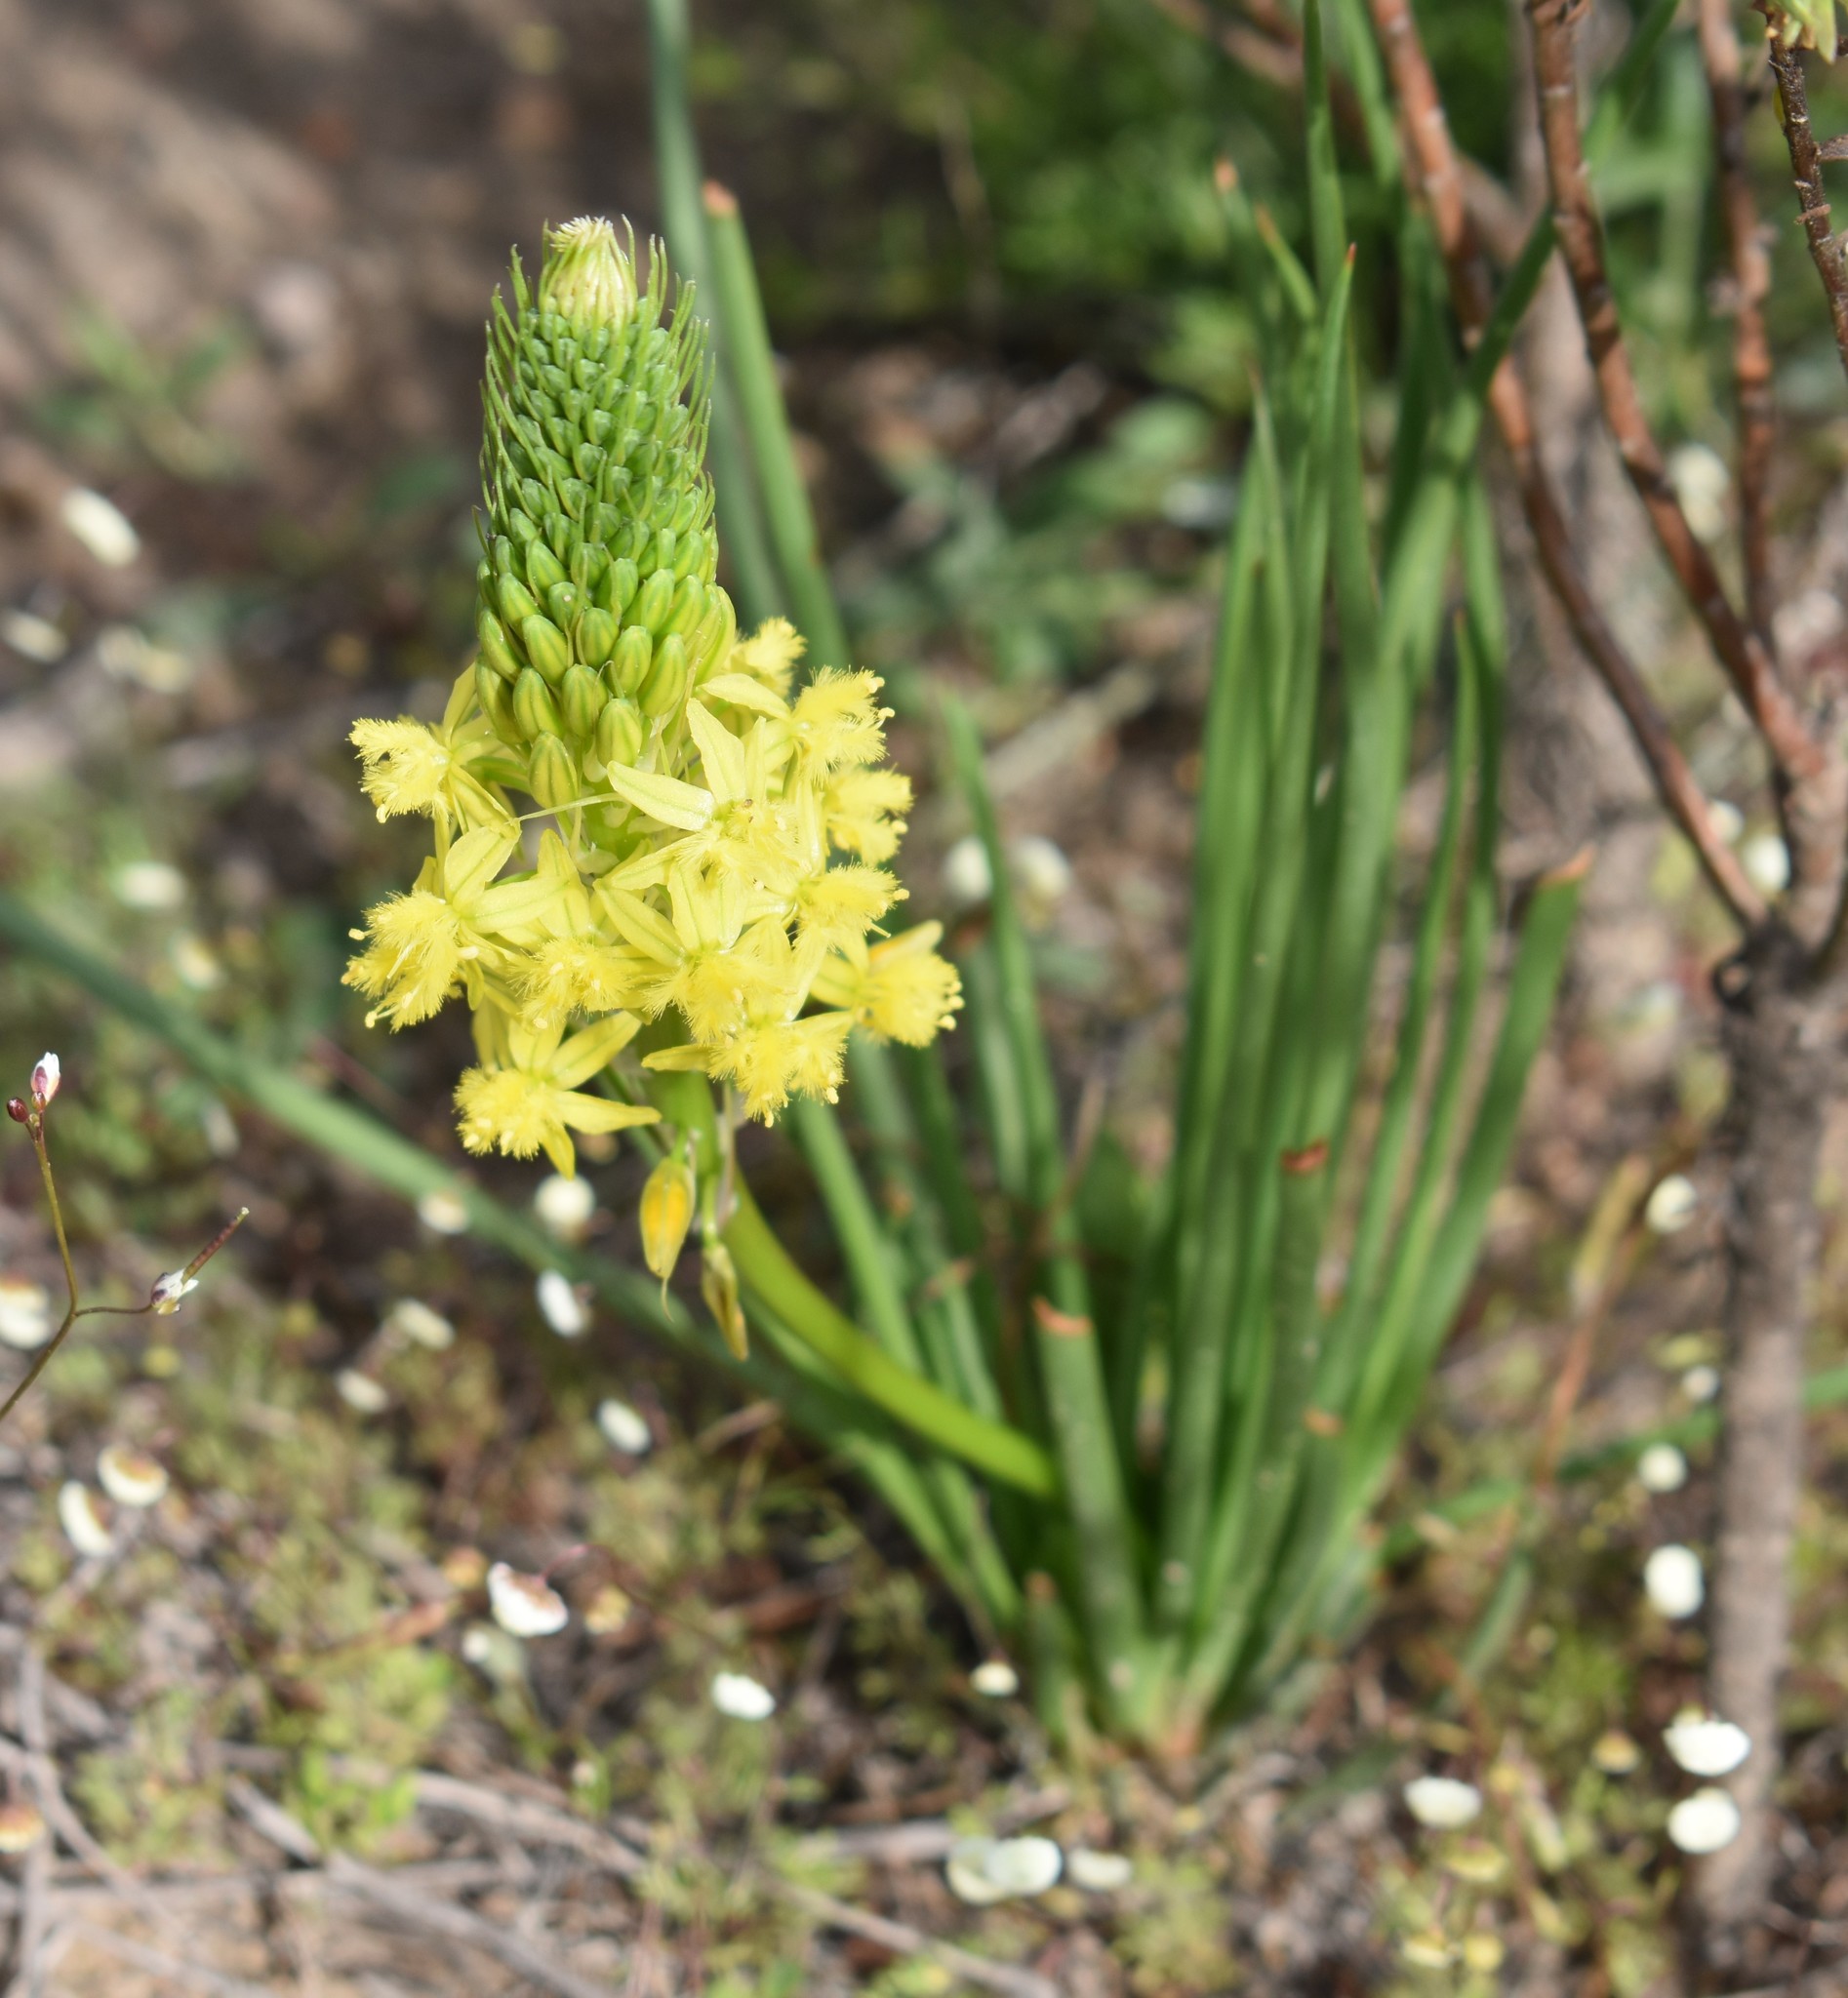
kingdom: Plantae
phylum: Tracheophyta
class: Liliopsida
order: Asparagales
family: Asphodelaceae
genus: Bulbine
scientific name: Bulbine abyssinica
